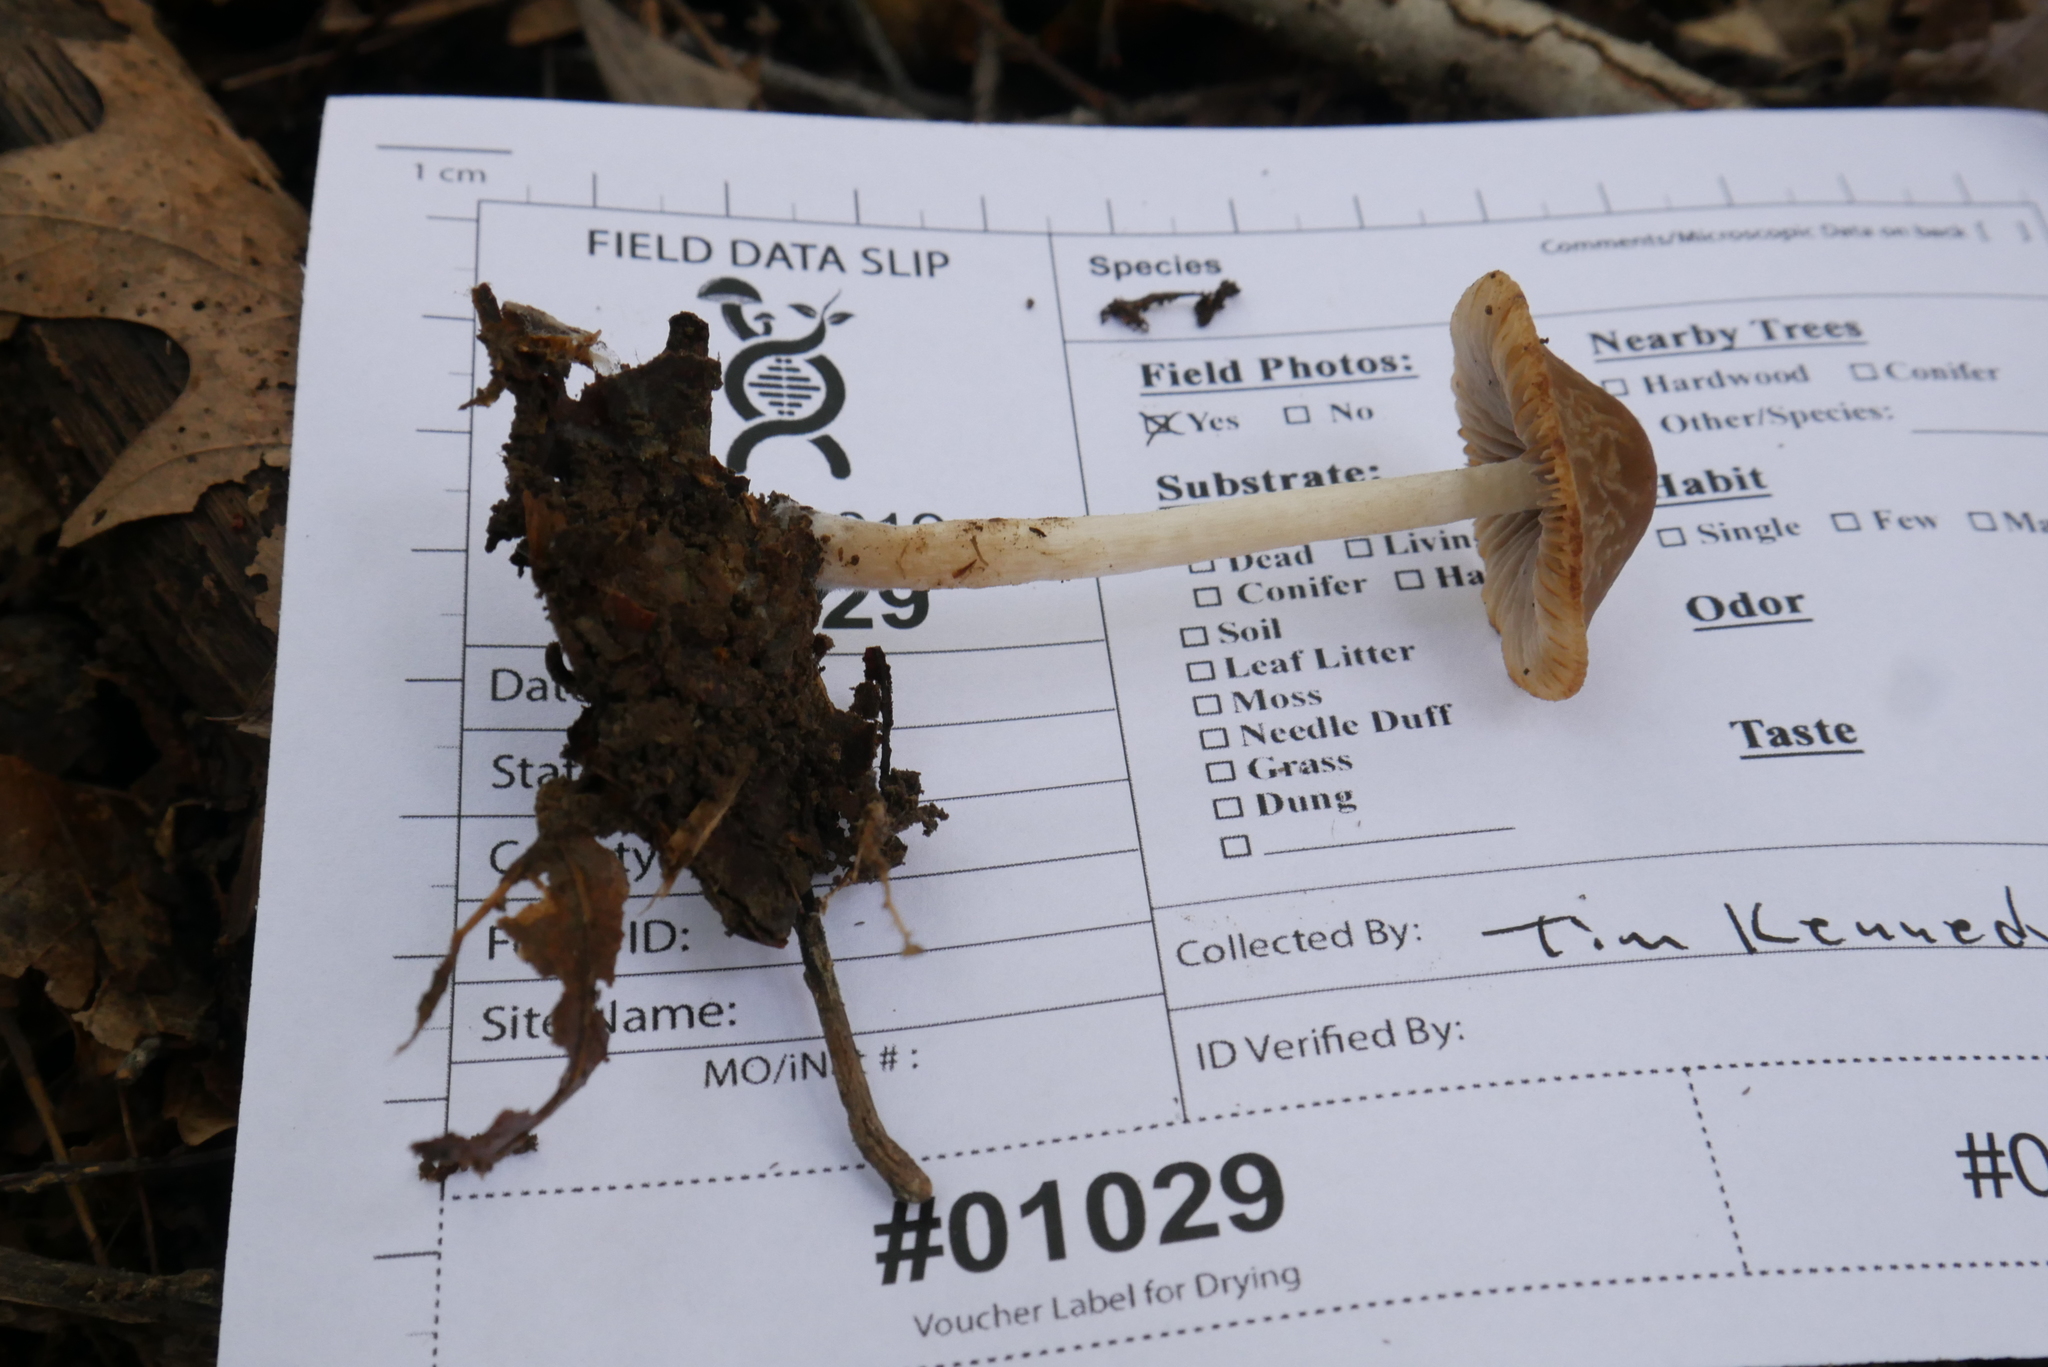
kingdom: Fungi
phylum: Basidiomycota
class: Agaricomycetes
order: Agaricales
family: Psathyrellaceae
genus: Psathyrella
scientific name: Psathyrella seminuda
